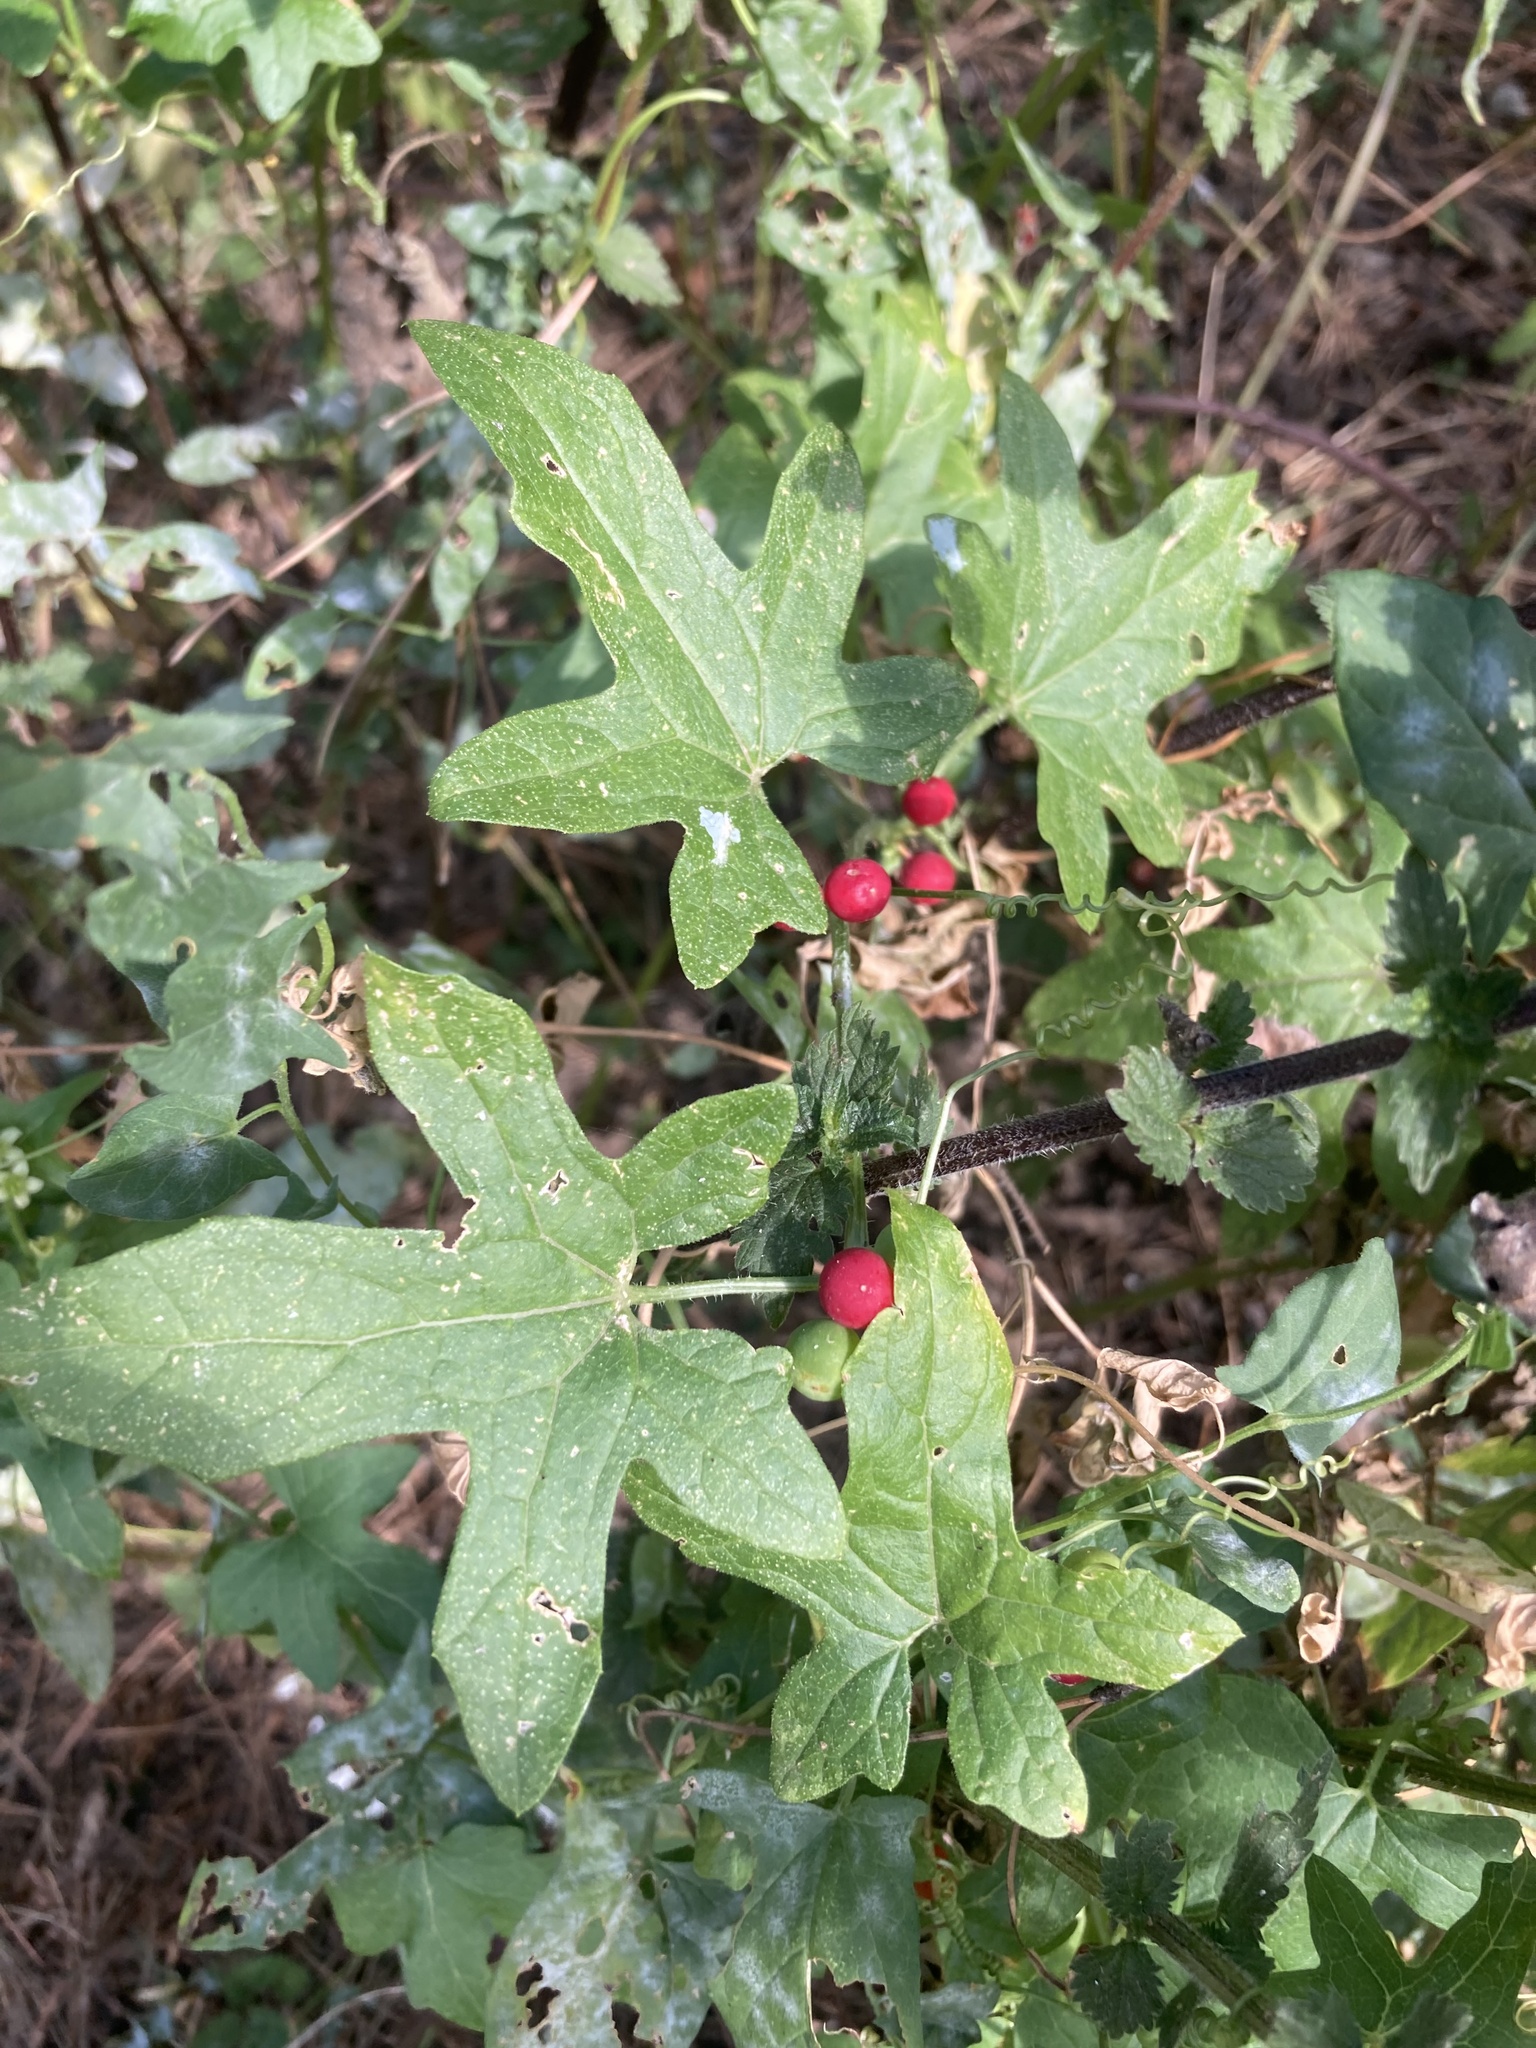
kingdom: Plantae
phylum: Tracheophyta
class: Magnoliopsida
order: Cucurbitales
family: Cucurbitaceae
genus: Bryonia
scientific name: Bryonia cretica
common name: Cretan bryony
